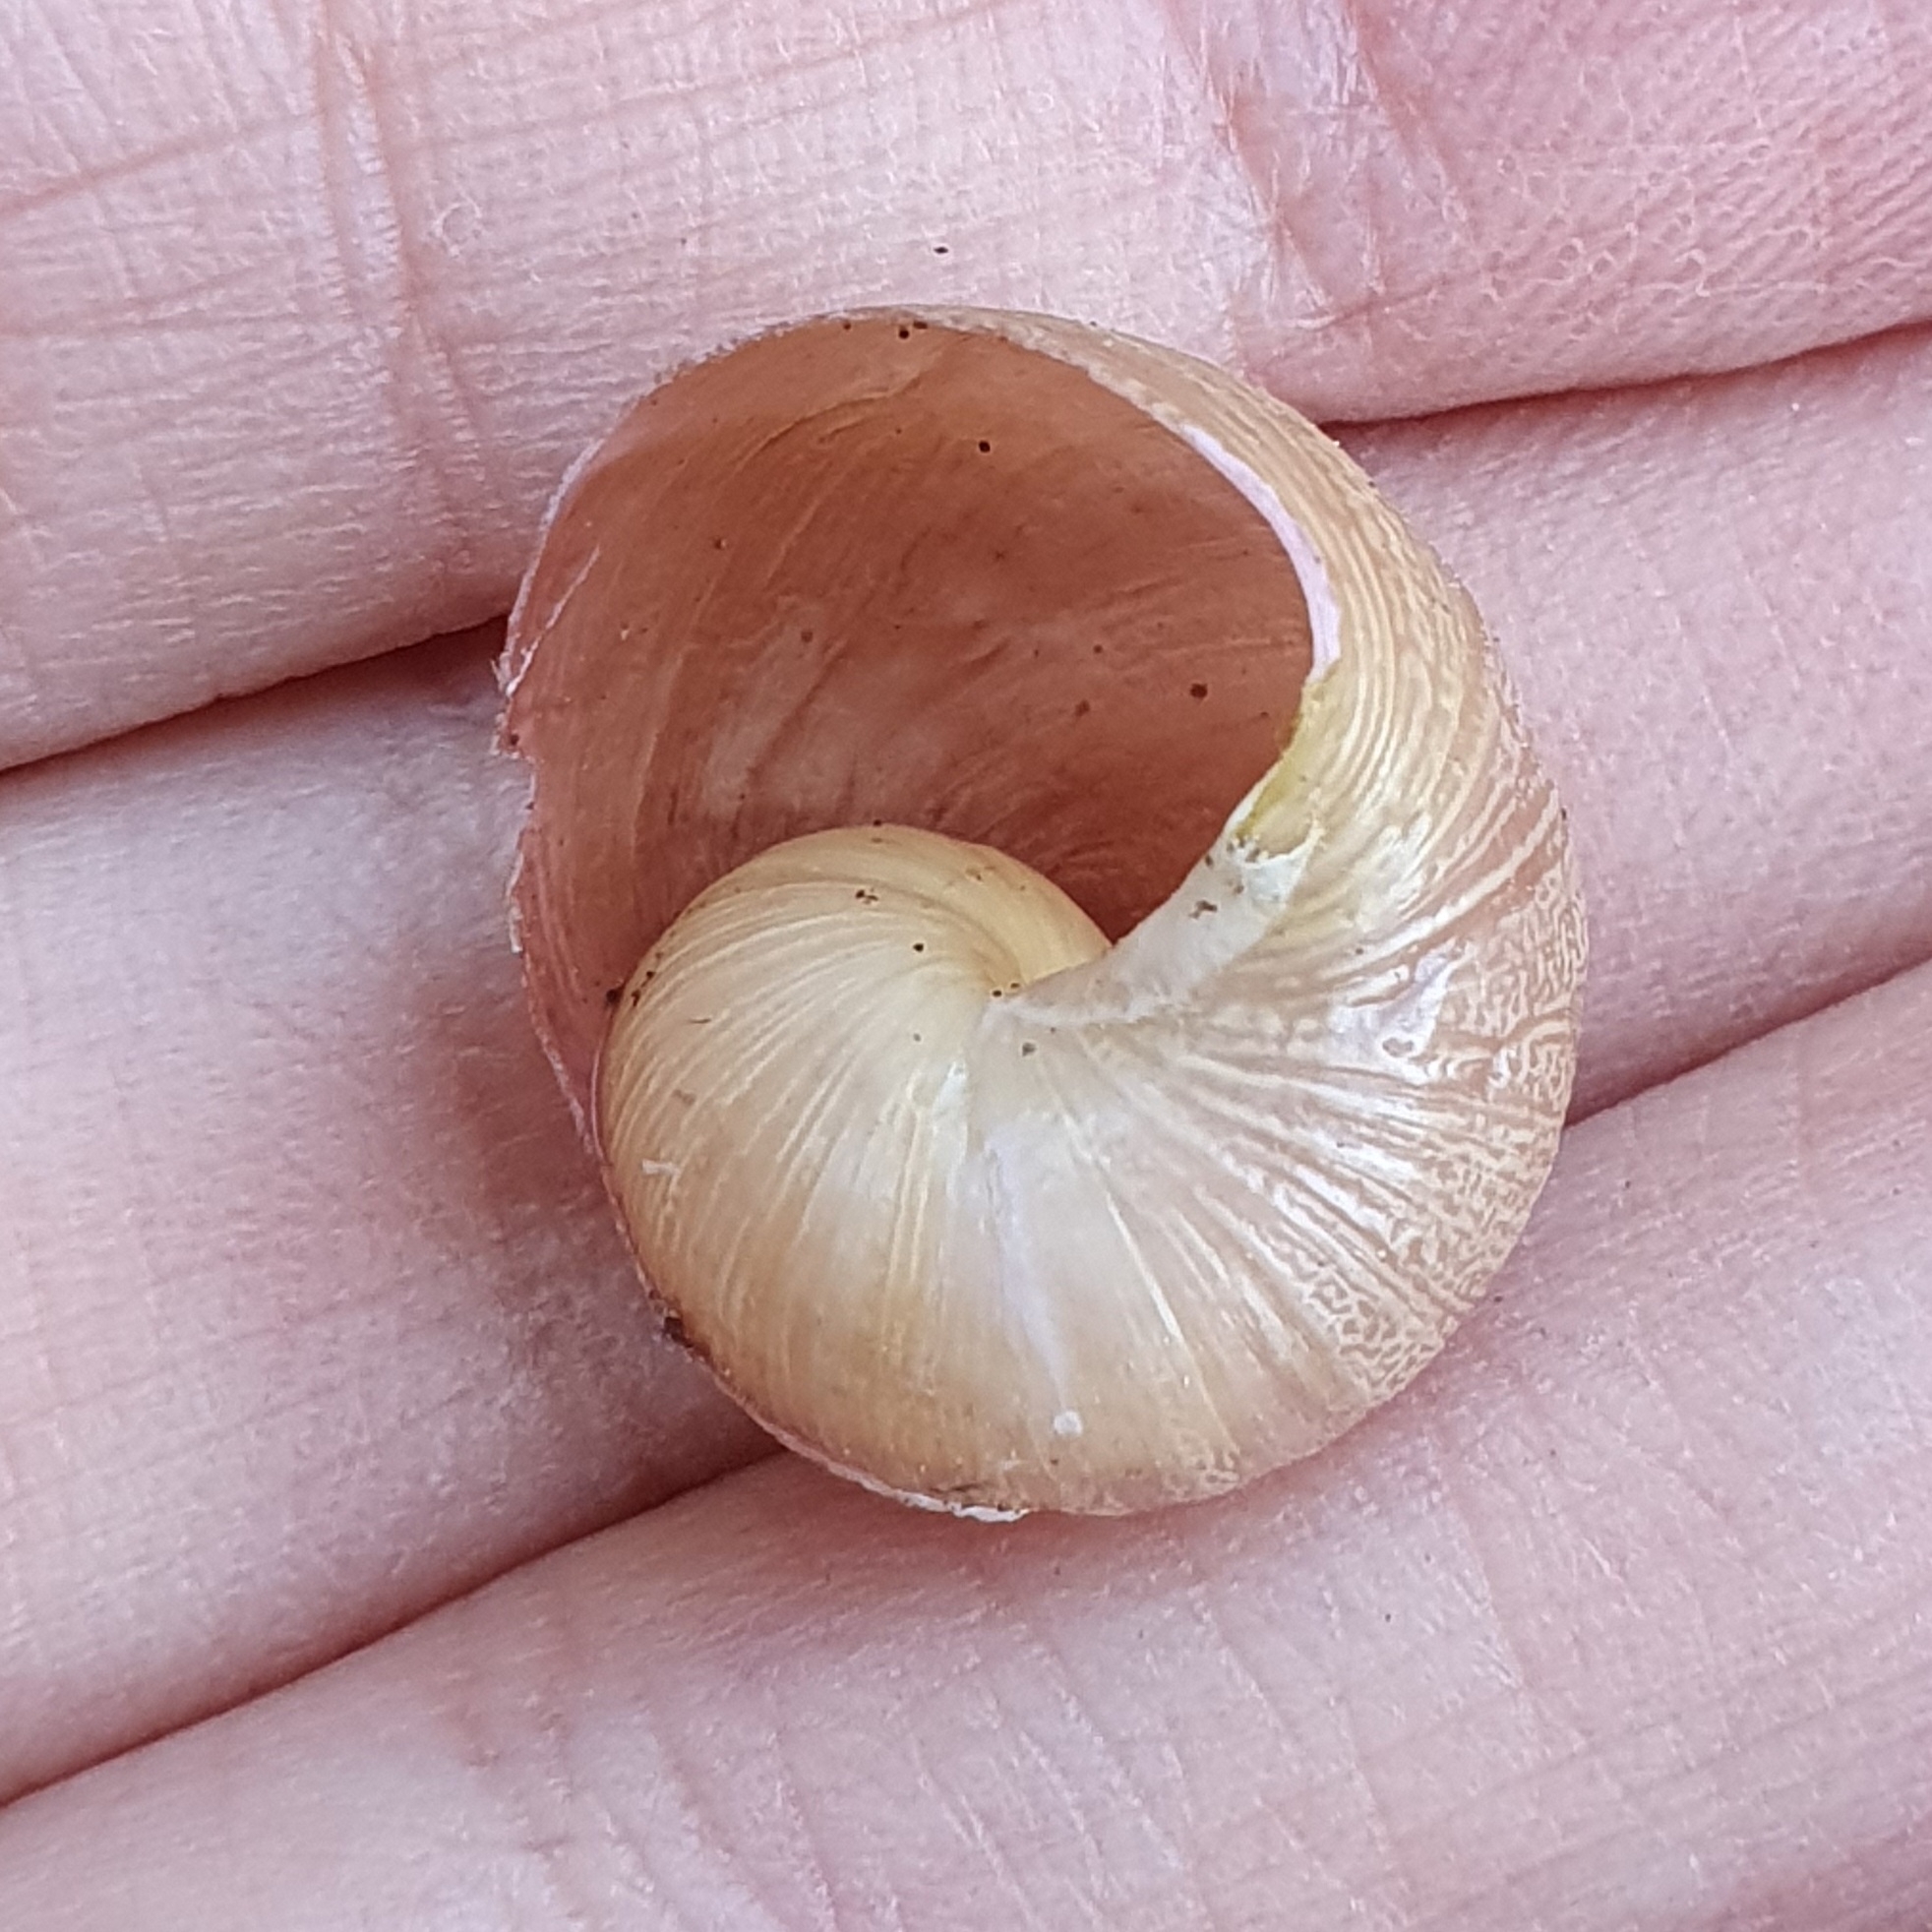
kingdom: Animalia
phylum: Mollusca
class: Gastropoda
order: Stylommatophora
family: Helicidae
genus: Cornu
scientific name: Cornu aspersum
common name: Brown garden snail
